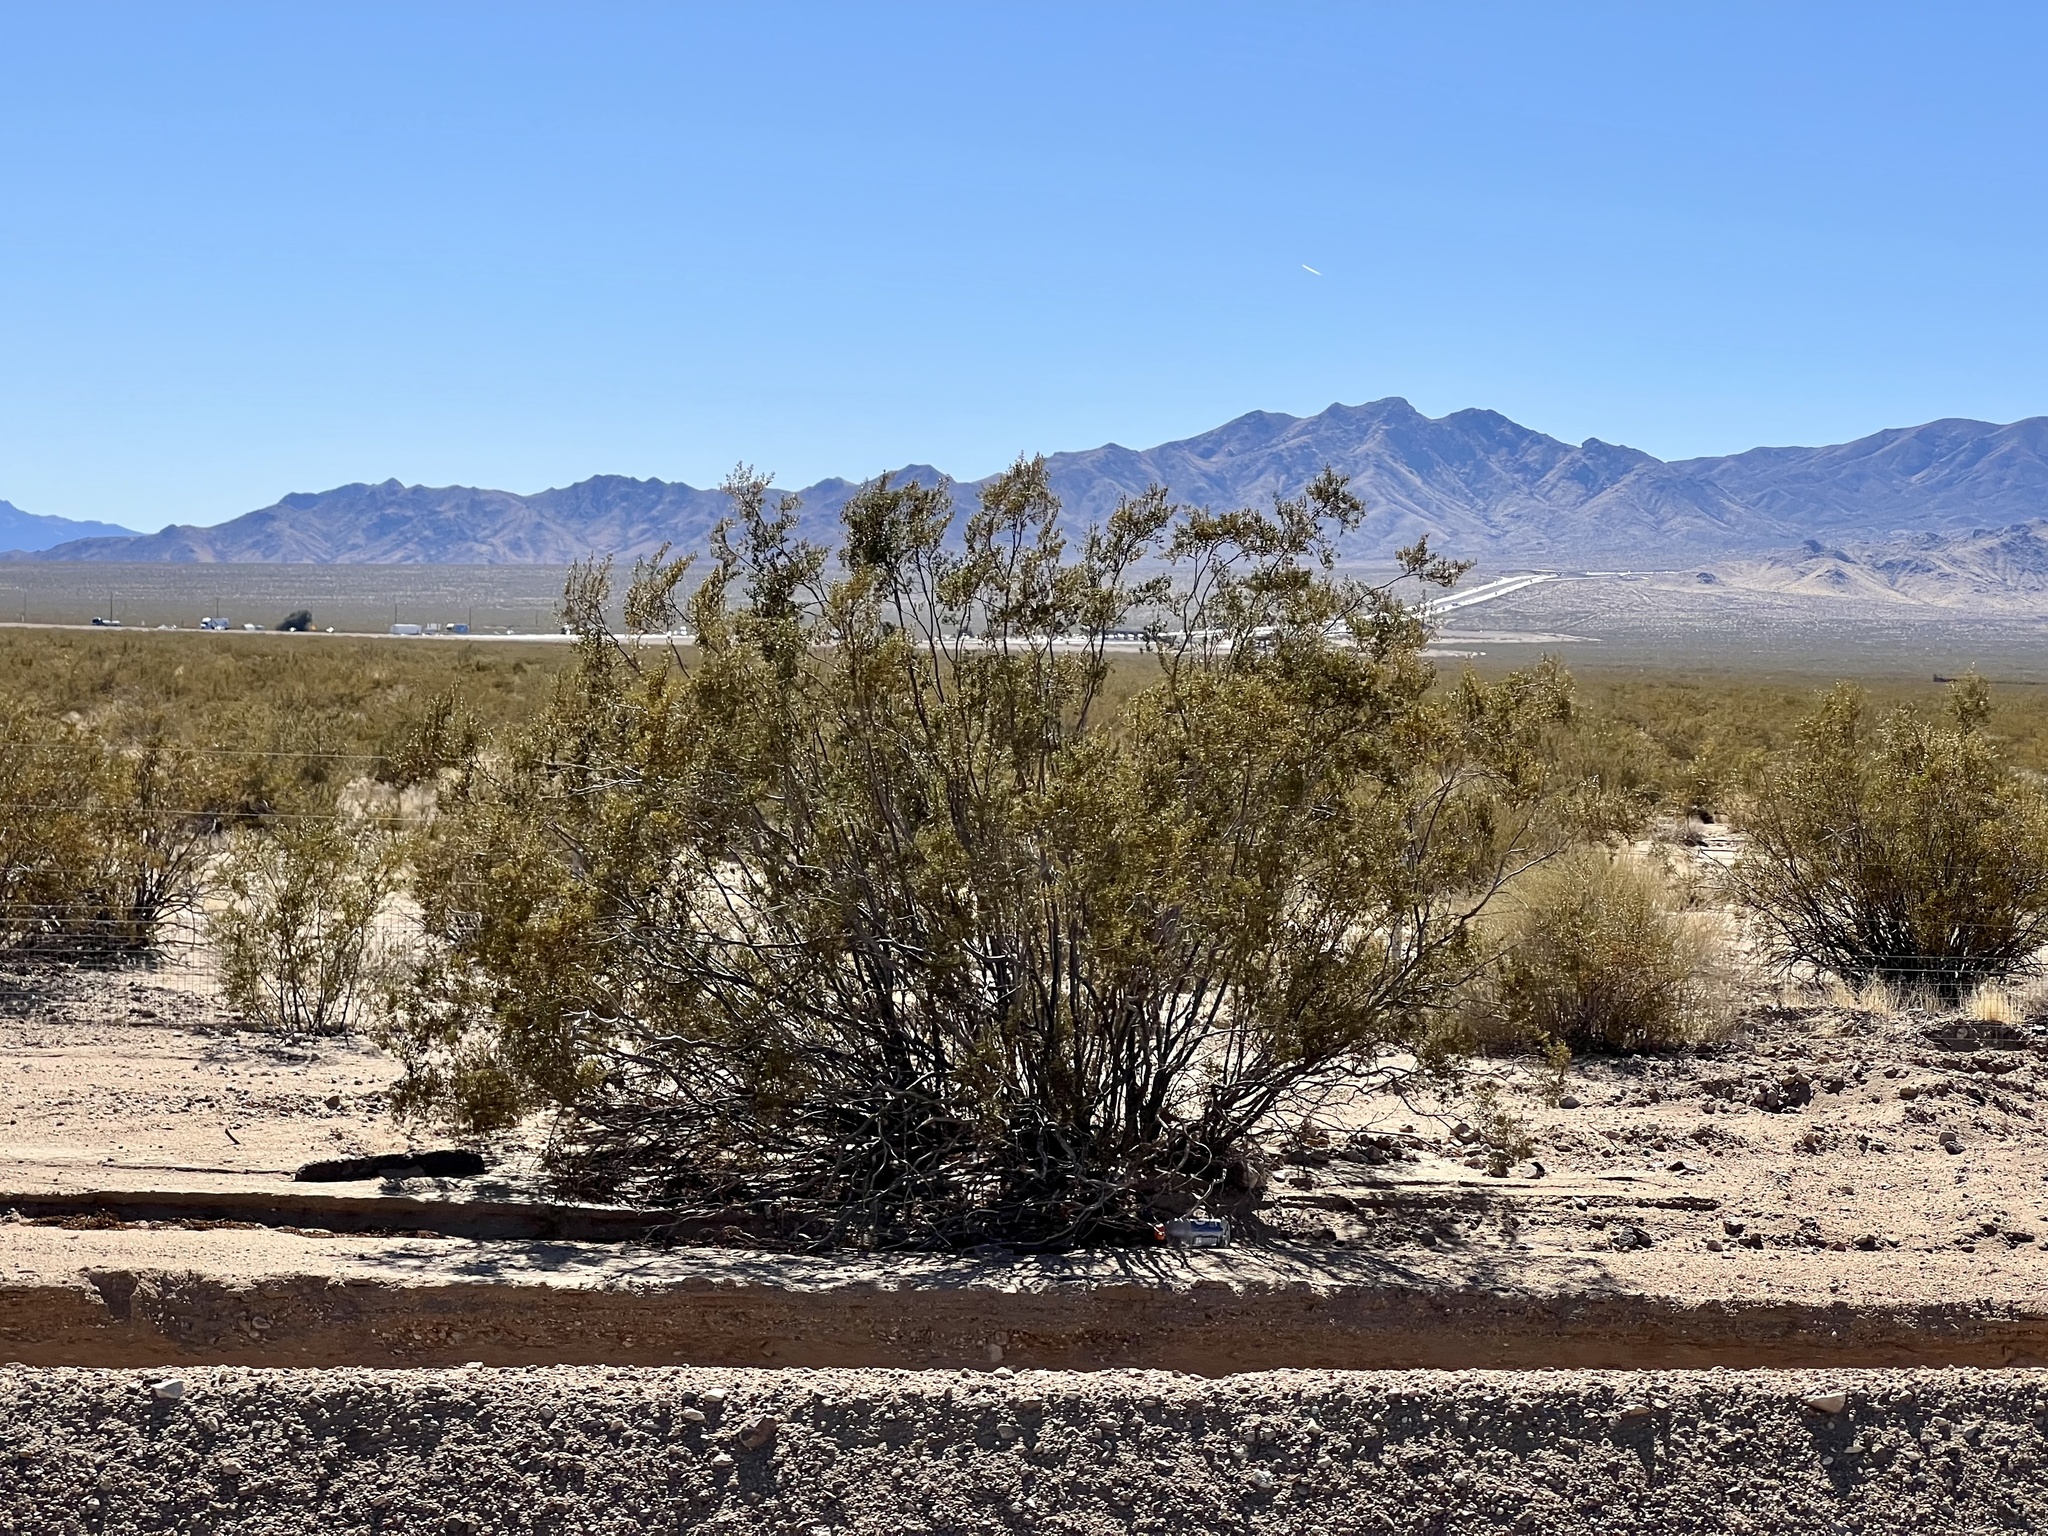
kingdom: Plantae
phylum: Tracheophyta
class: Magnoliopsida
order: Zygophyllales
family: Zygophyllaceae
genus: Larrea
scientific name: Larrea tridentata
